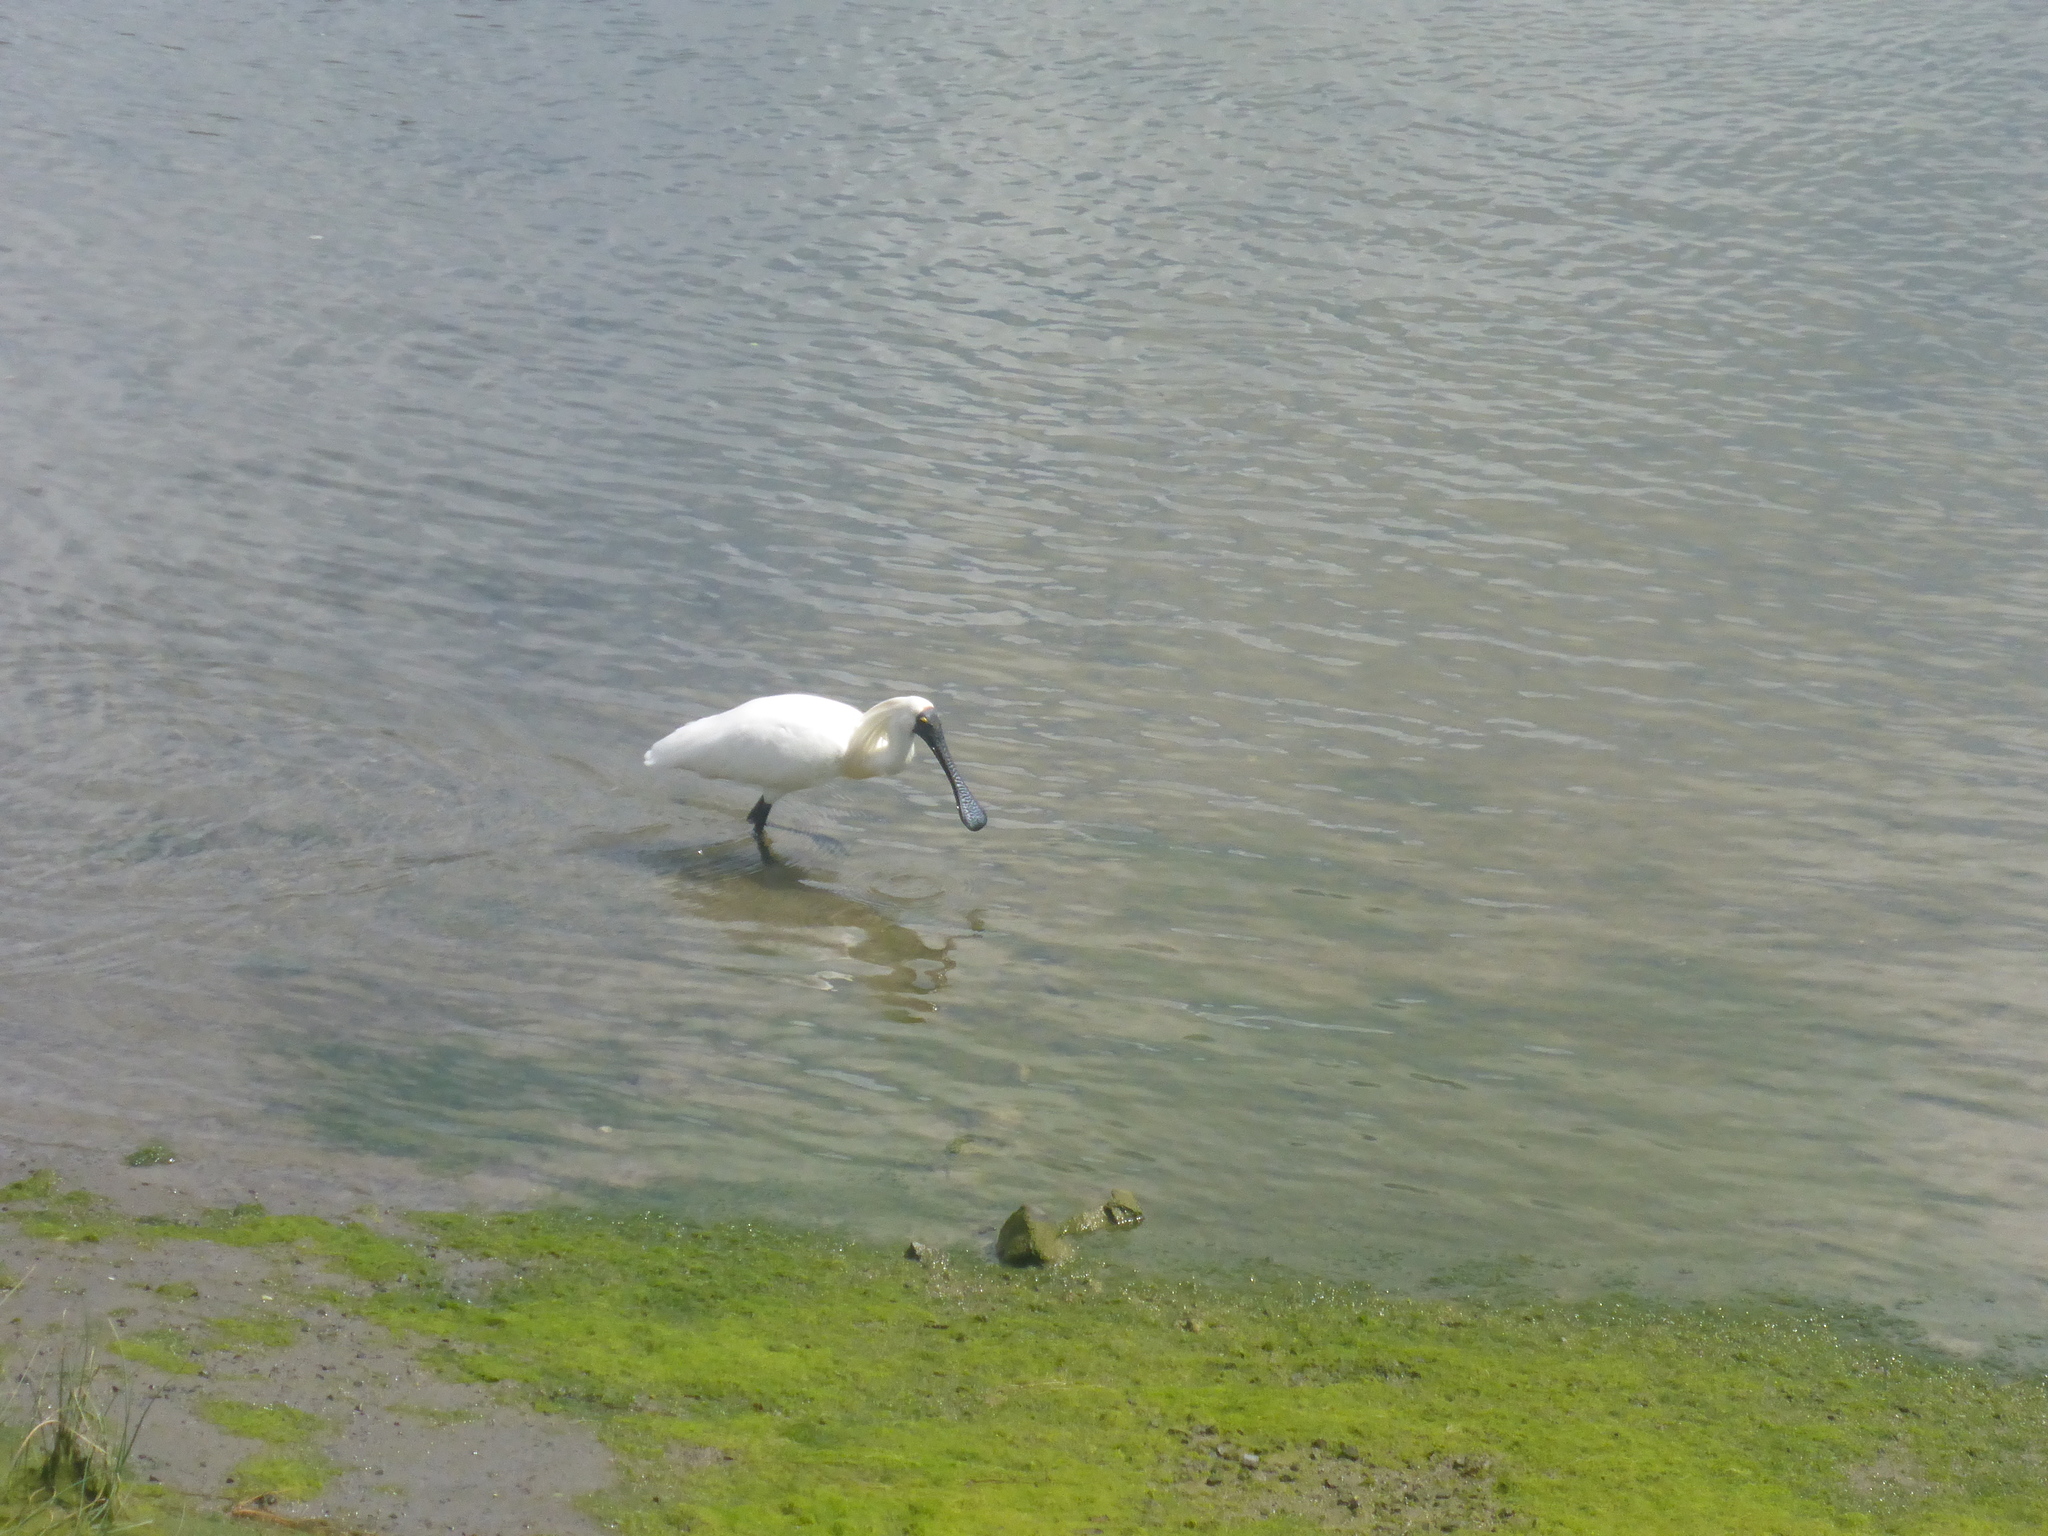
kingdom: Animalia
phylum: Chordata
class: Aves
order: Pelecaniformes
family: Threskiornithidae
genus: Platalea
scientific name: Platalea regia
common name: Royal spoonbill
